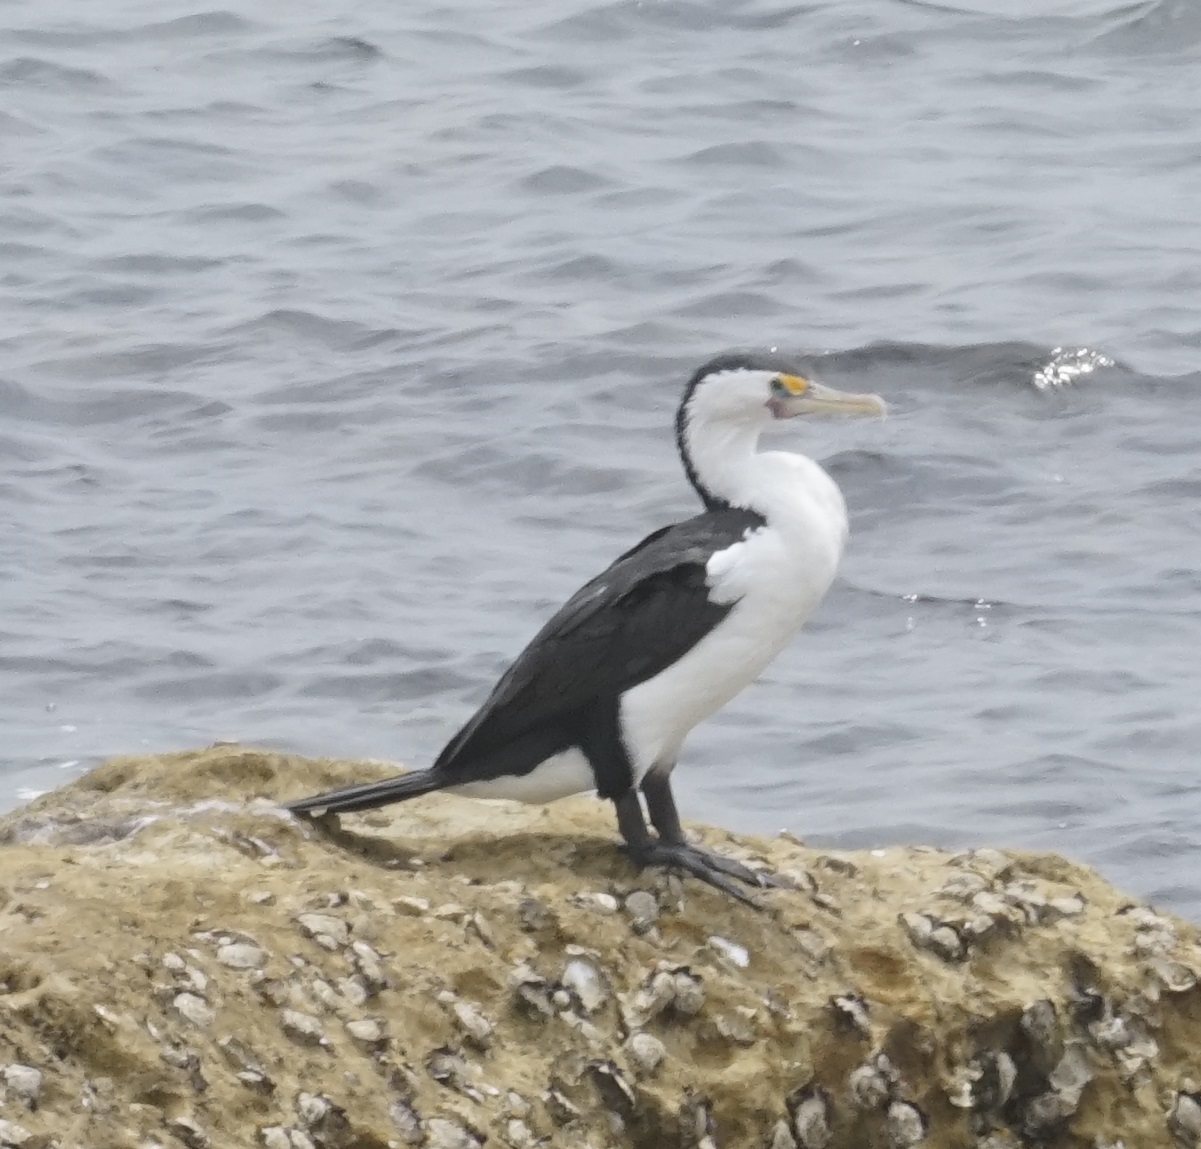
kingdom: Animalia
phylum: Chordata
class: Aves
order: Suliformes
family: Phalacrocoracidae
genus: Phalacrocorax
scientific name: Phalacrocorax varius
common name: Pied cormorant
